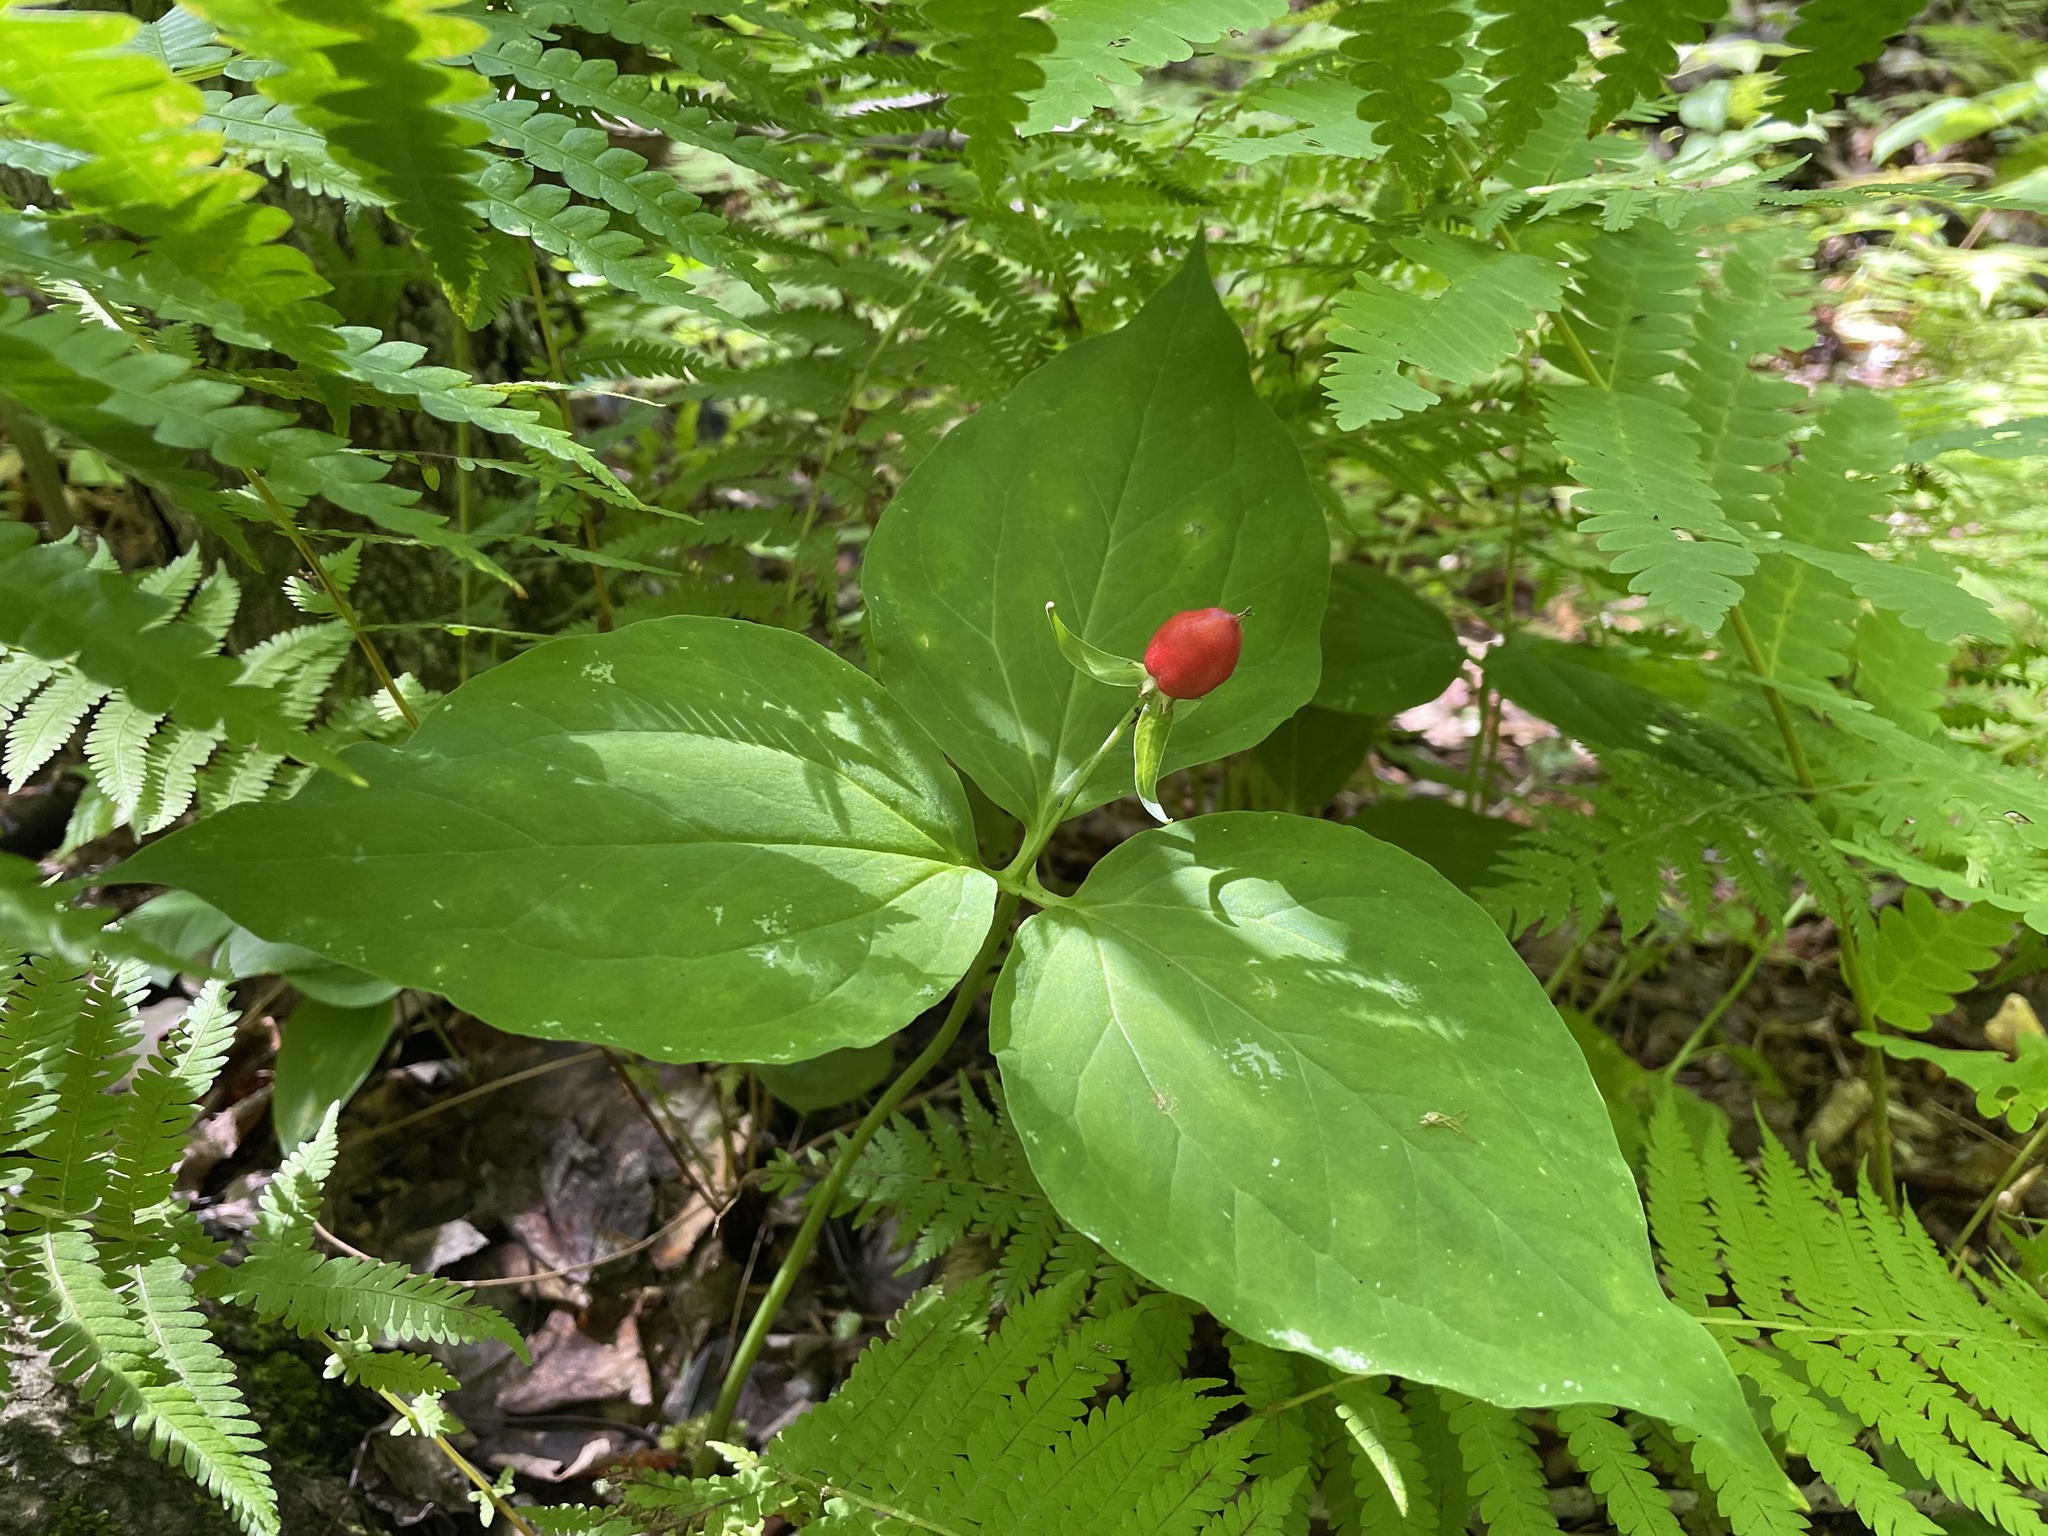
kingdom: Plantae
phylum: Tracheophyta
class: Liliopsida
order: Liliales
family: Melanthiaceae
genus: Trillium
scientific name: Trillium undulatum
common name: Paint trillium
